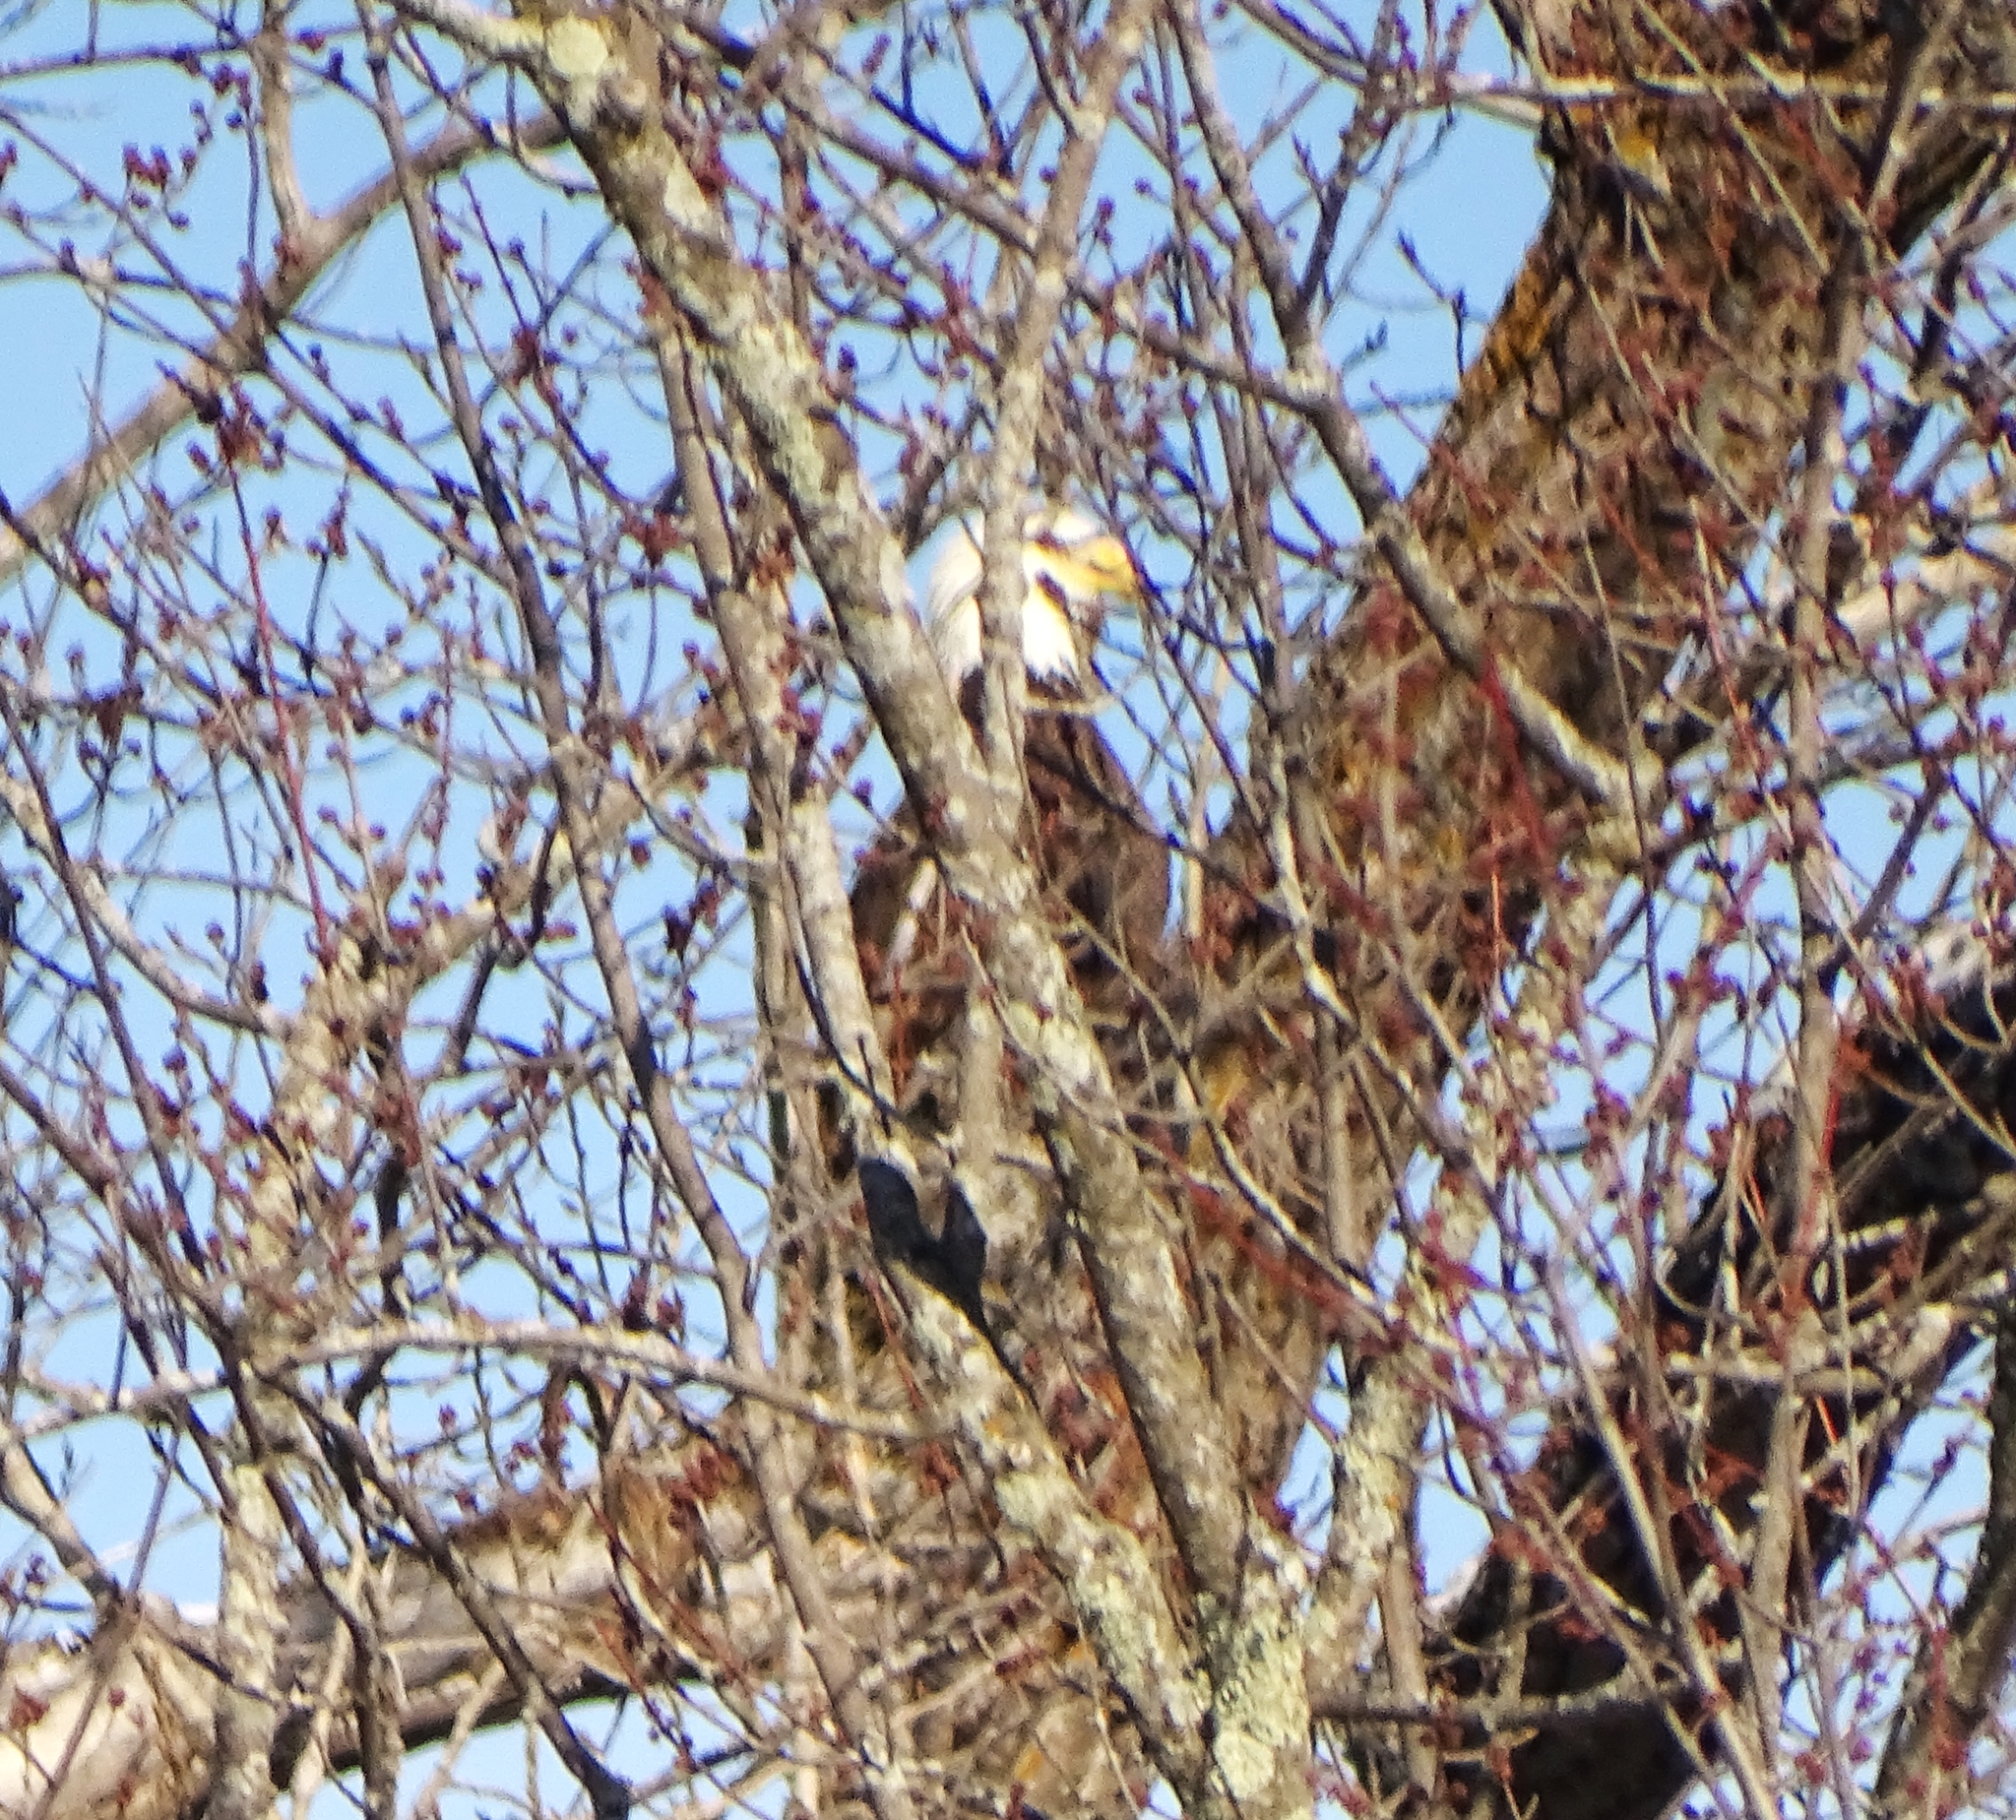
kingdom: Animalia
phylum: Chordata
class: Aves
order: Accipitriformes
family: Accipitridae
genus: Haliaeetus
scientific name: Haliaeetus leucocephalus
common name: Bald eagle
